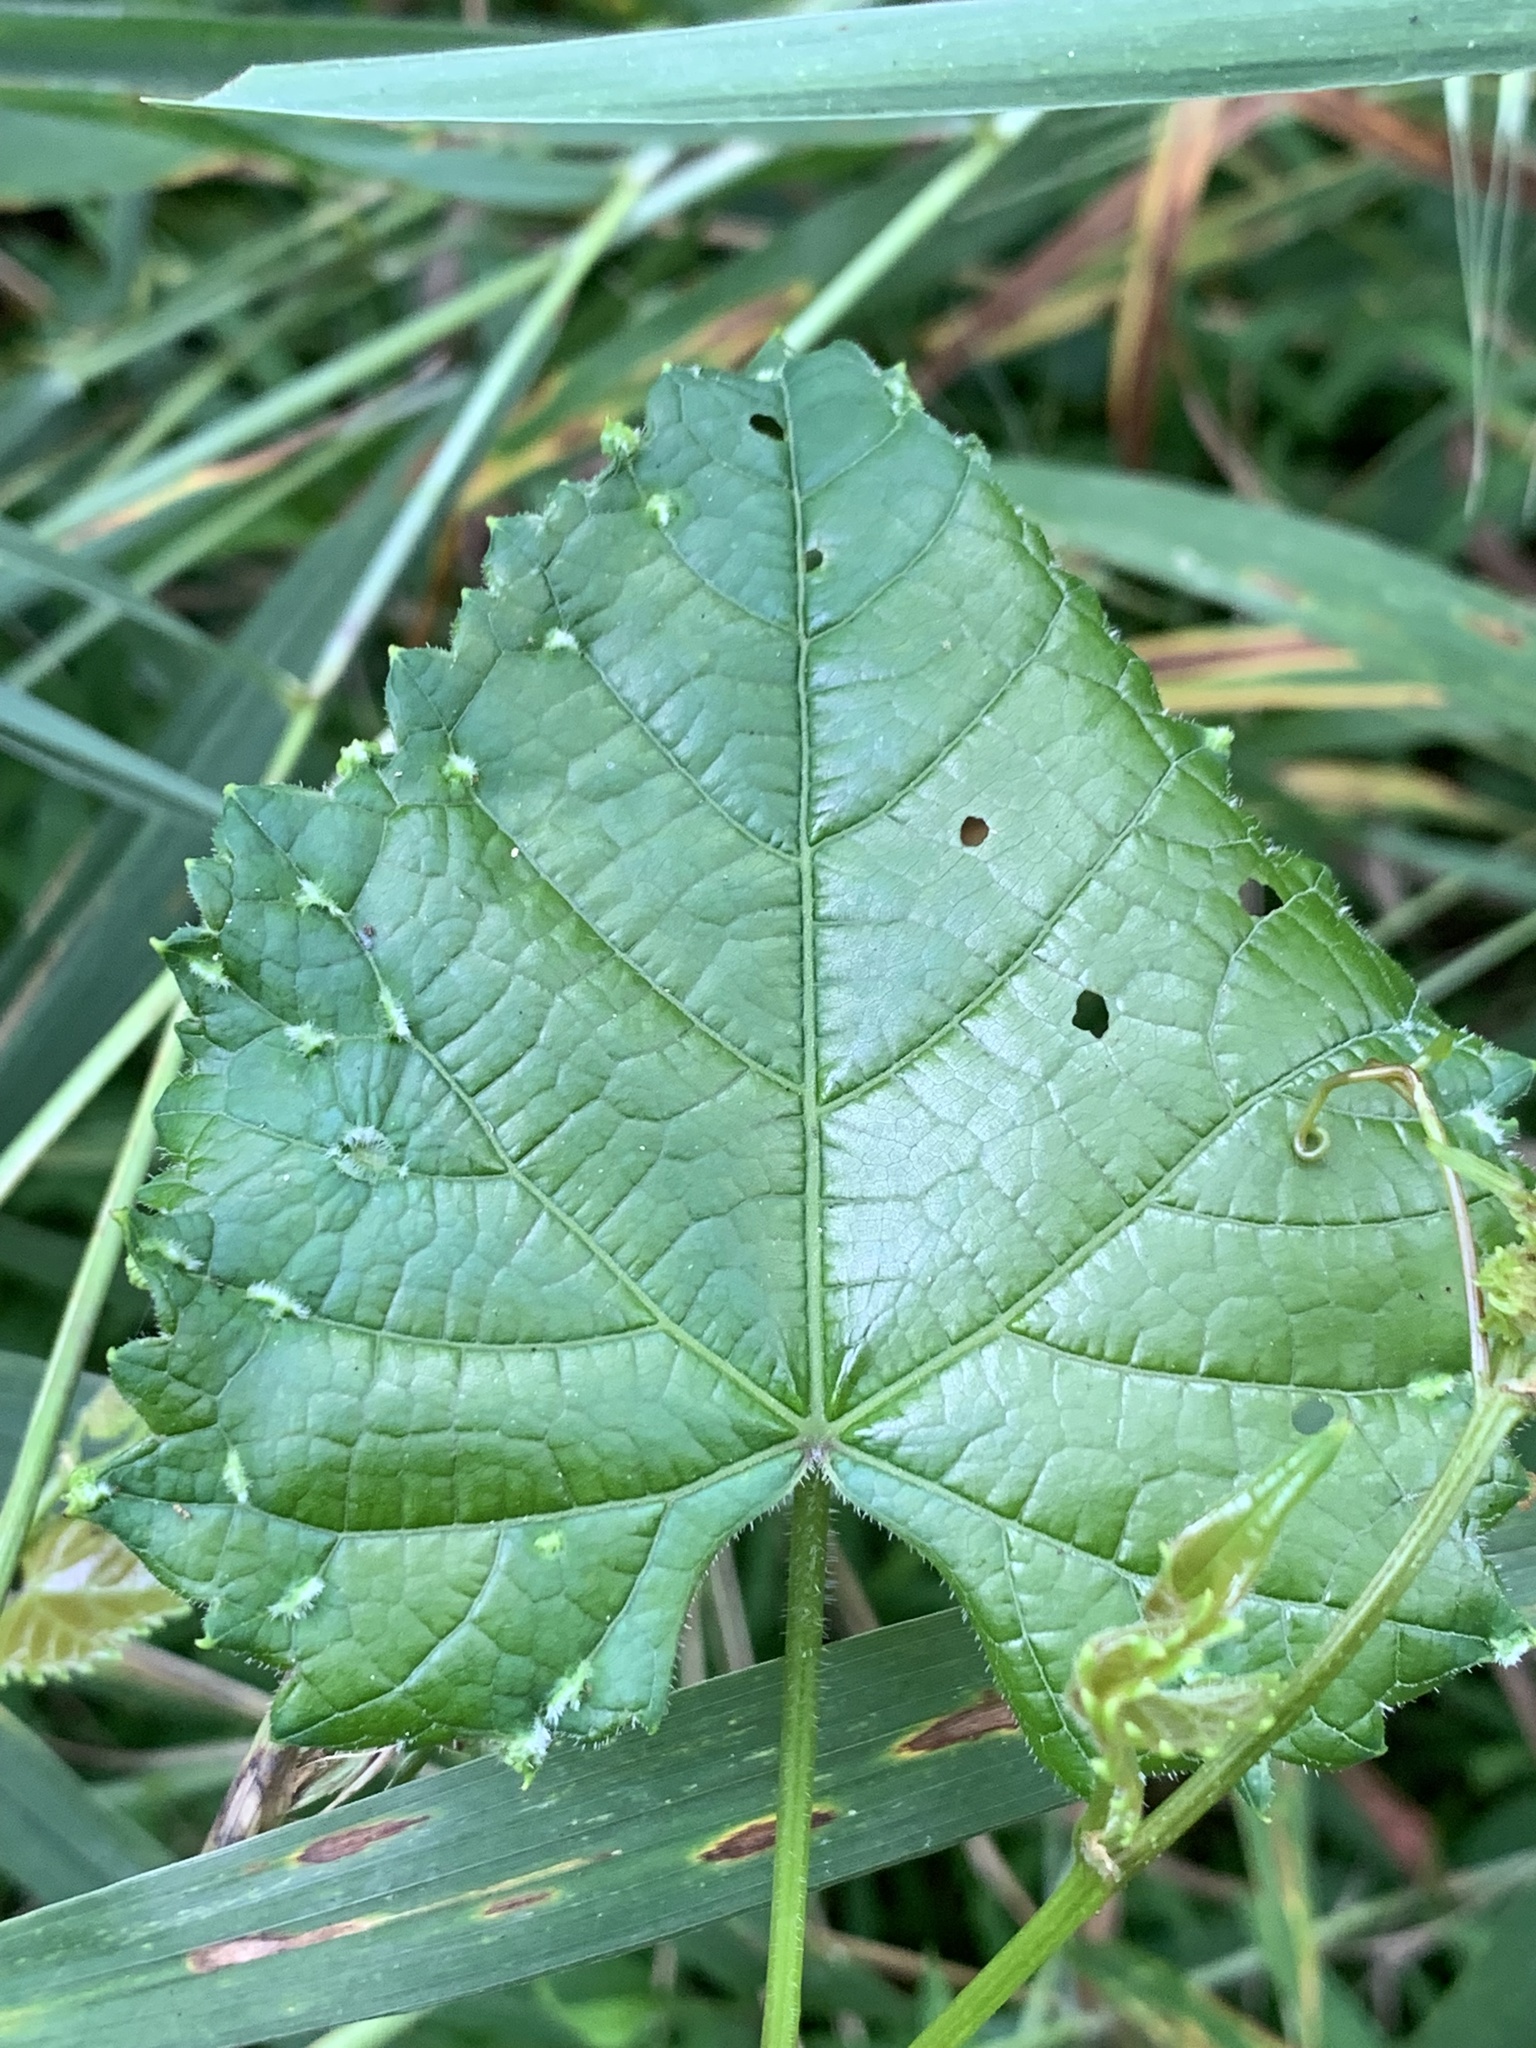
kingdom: Animalia
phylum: Arthropoda
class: Insecta
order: Hemiptera
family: Phylloxeridae
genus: Daktulosphaira
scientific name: Daktulosphaira vitifoliae
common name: Grape phylloxera
